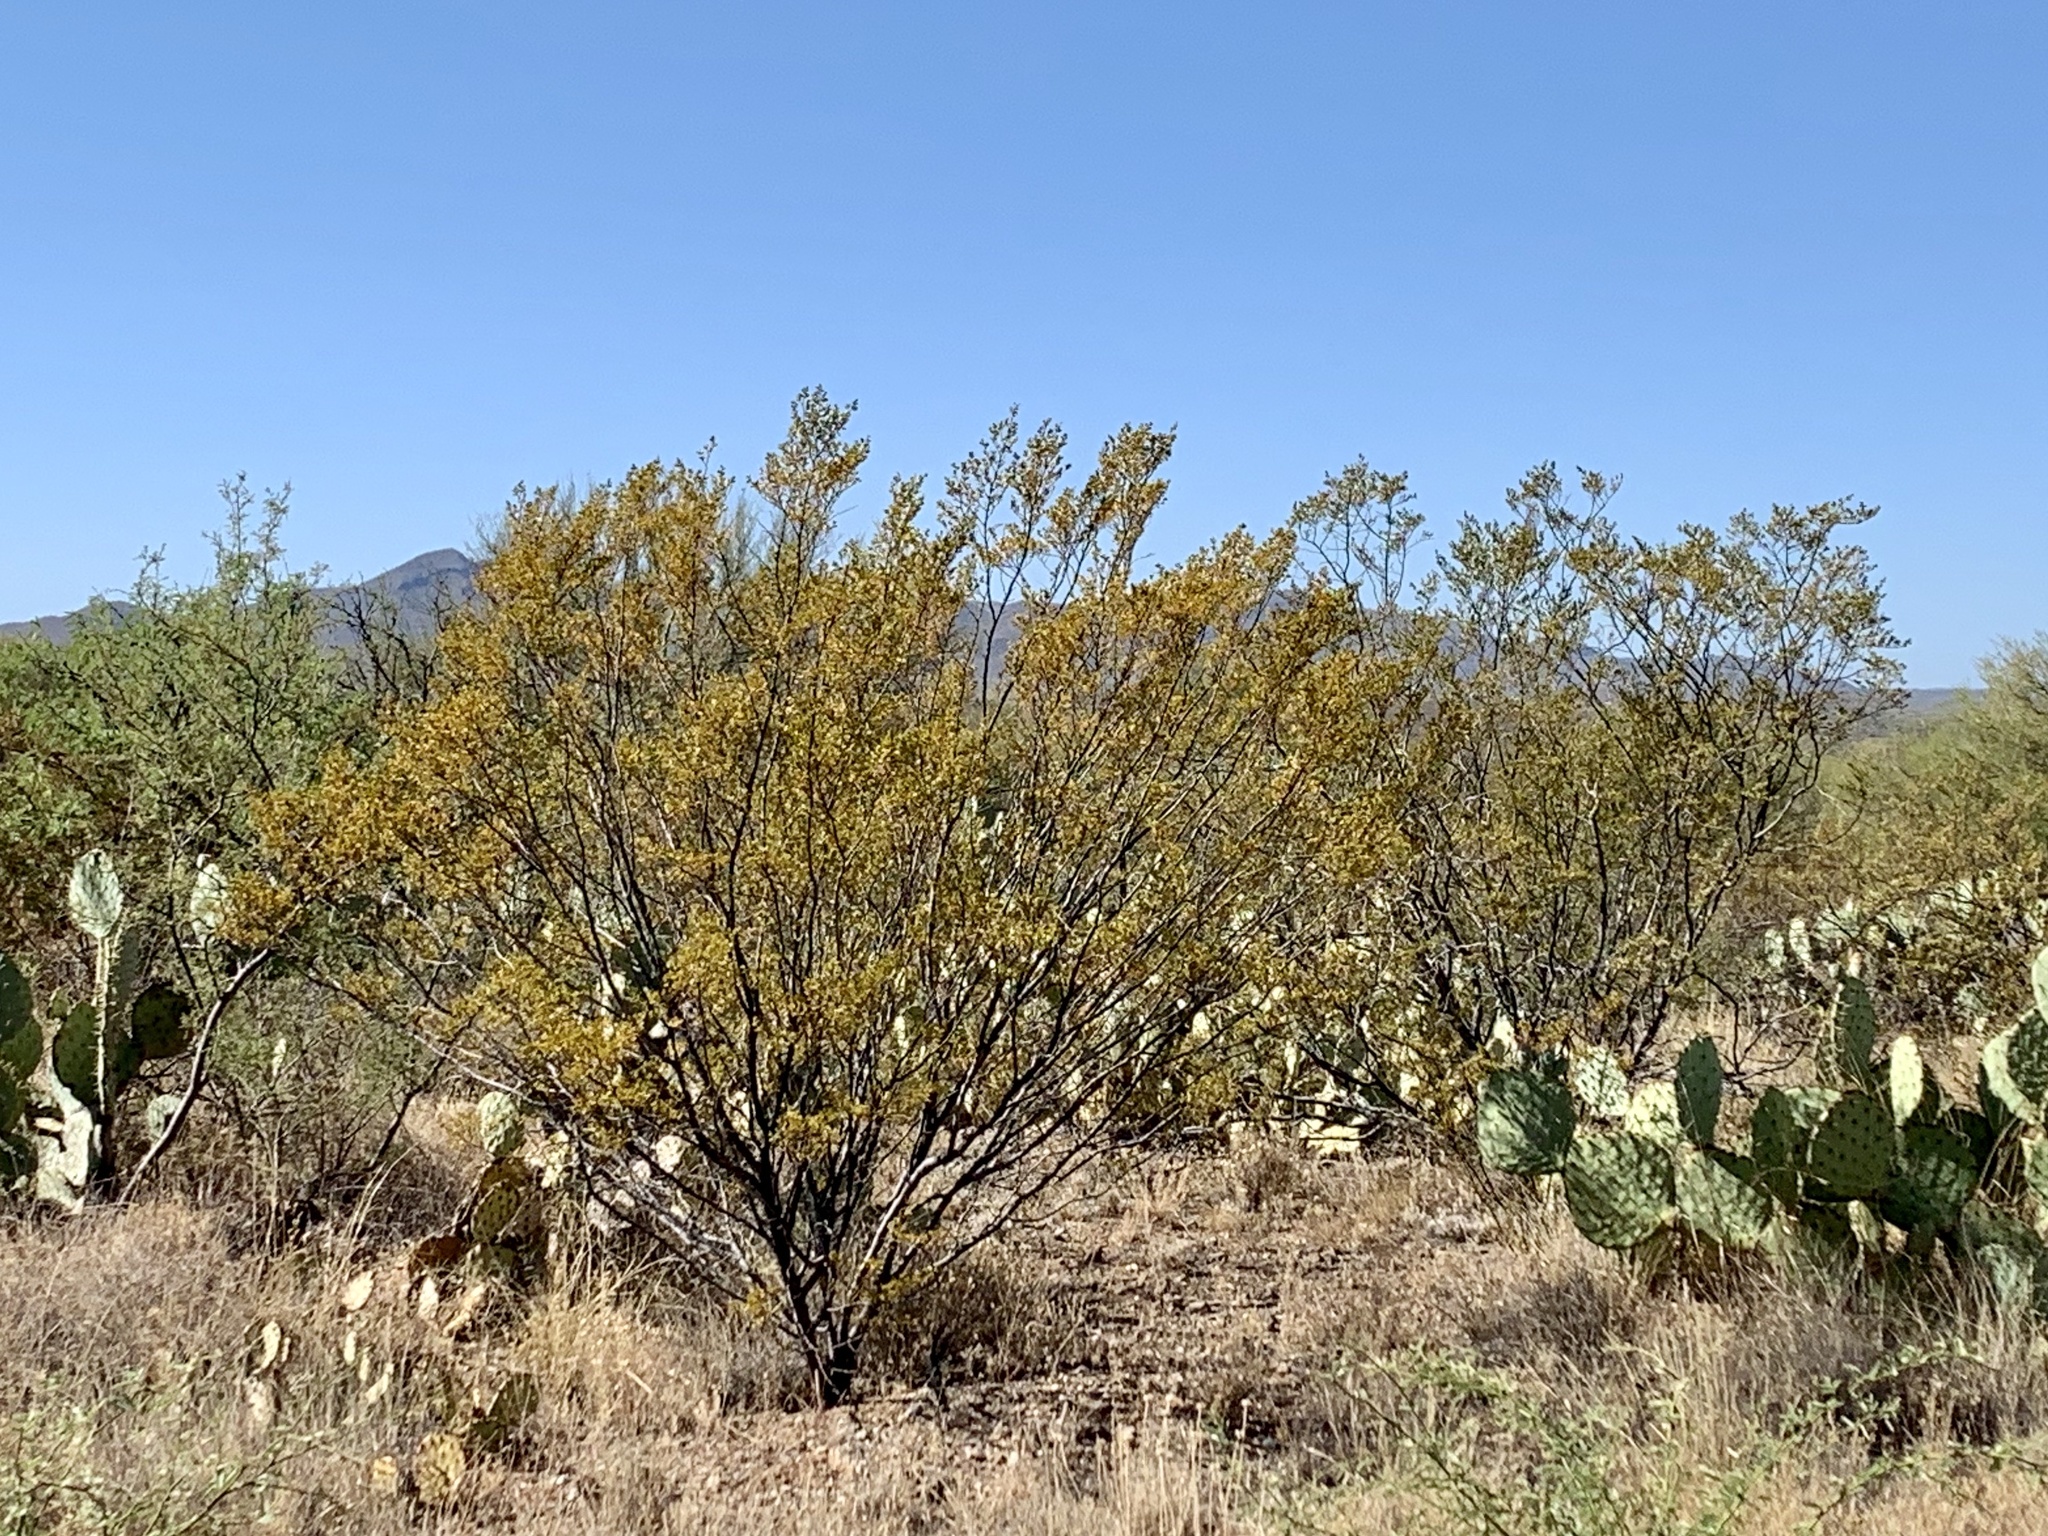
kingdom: Plantae
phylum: Tracheophyta
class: Magnoliopsida
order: Zygophyllales
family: Zygophyllaceae
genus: Larrea
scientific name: Larrea tridentata
